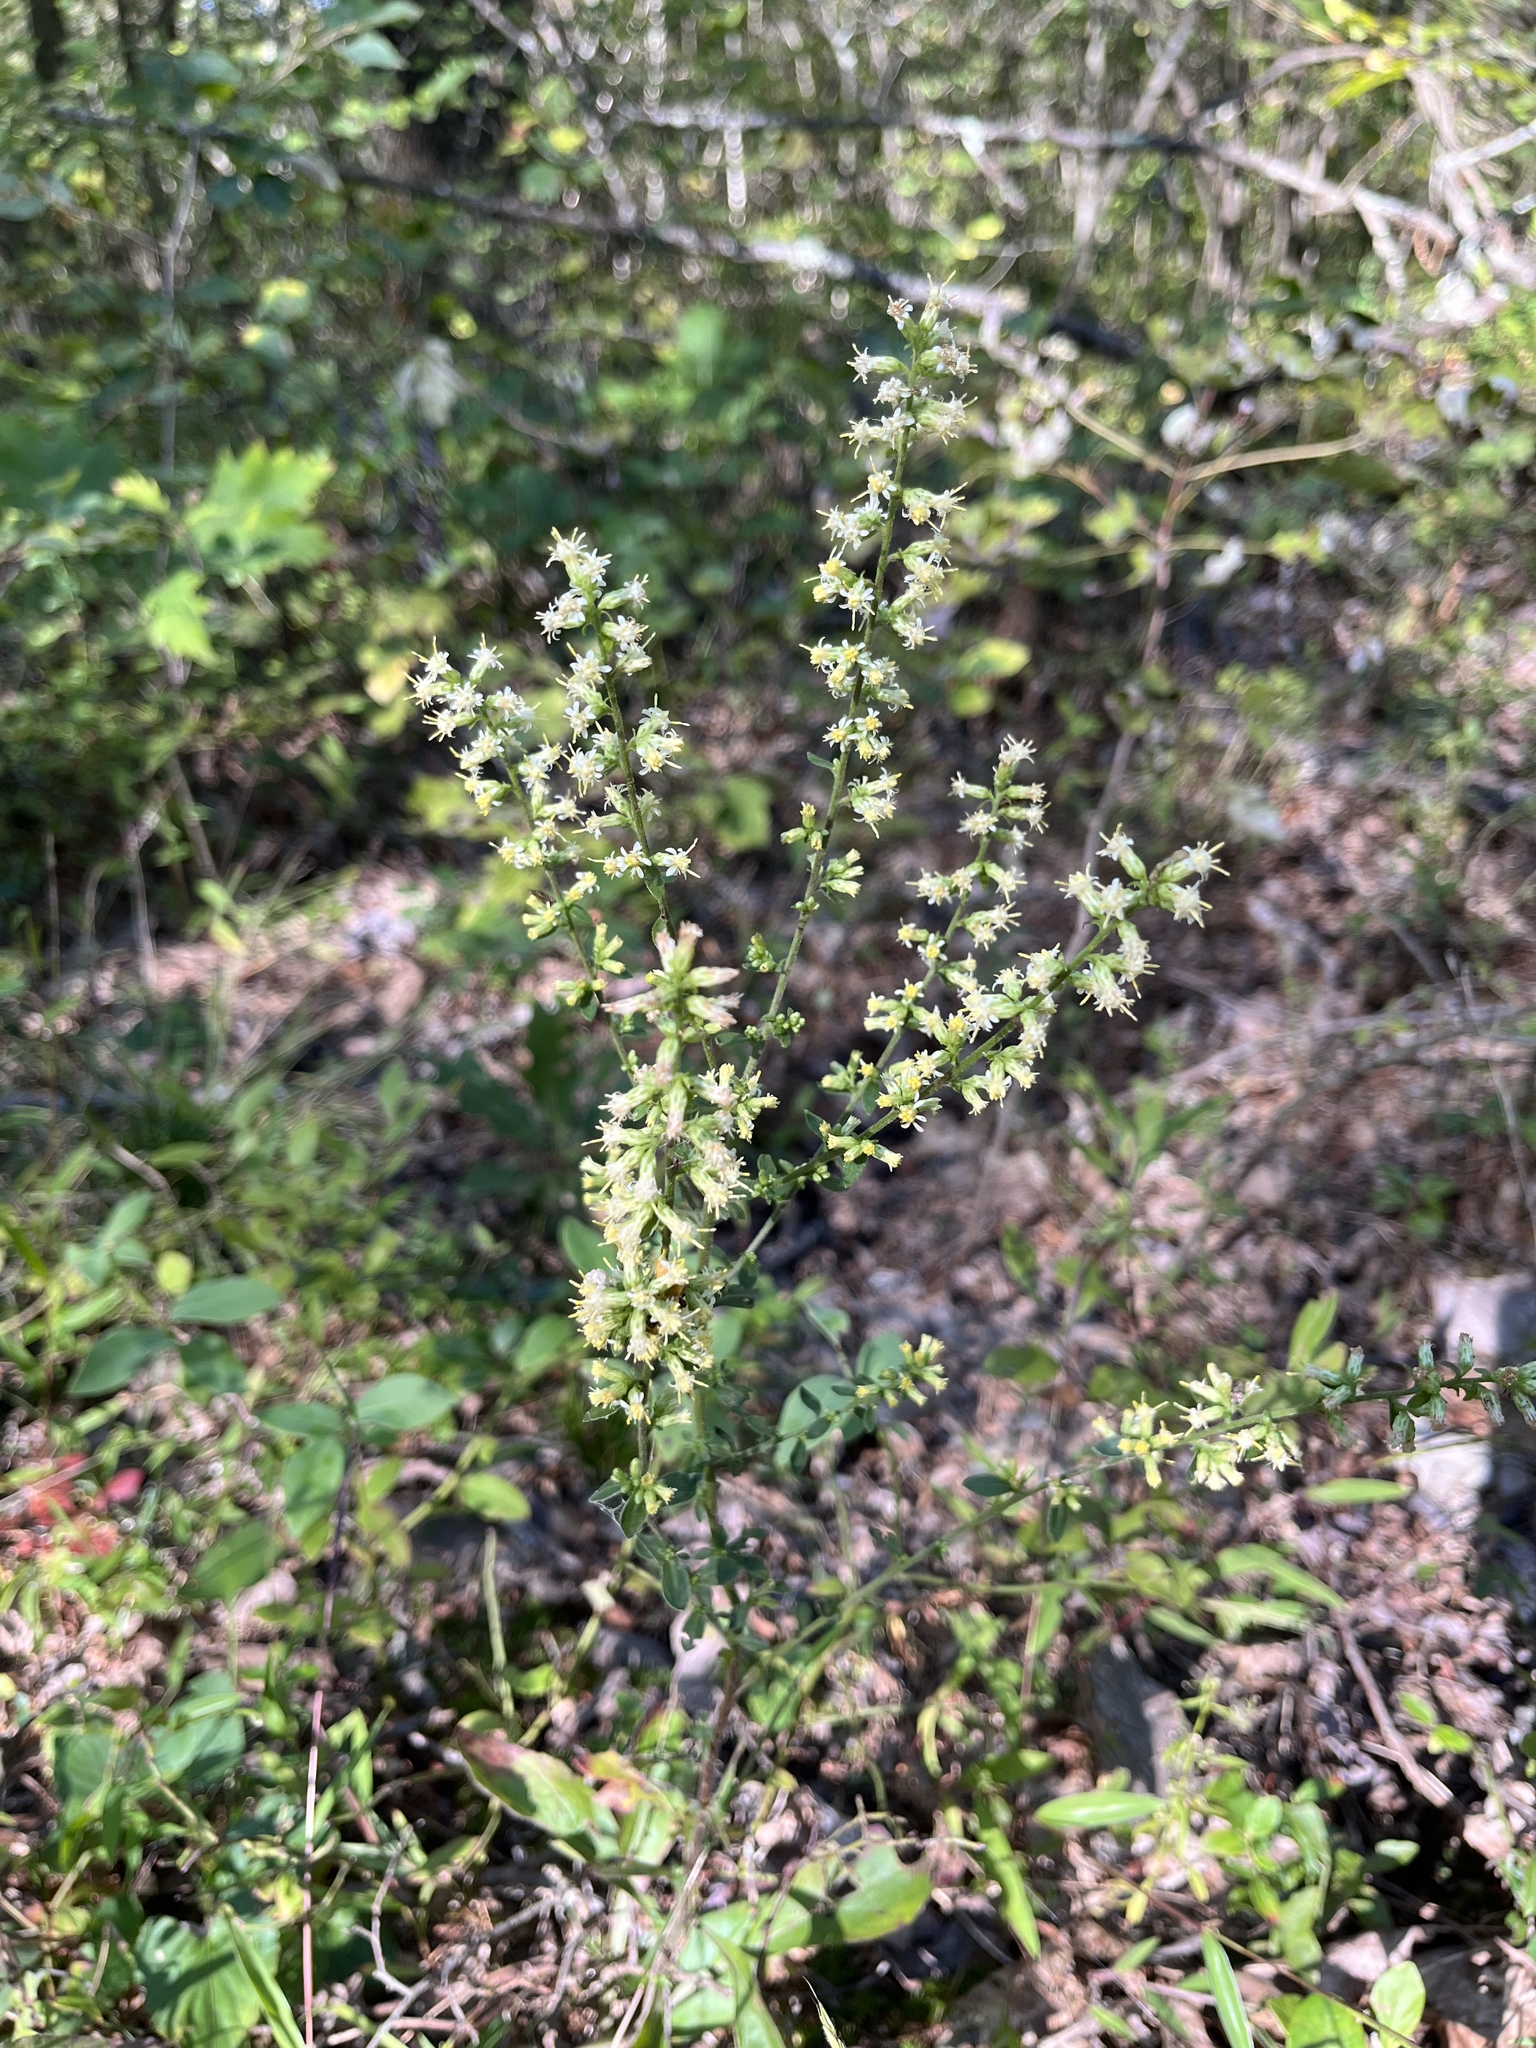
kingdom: Plantae
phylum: Tracheophyta
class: Magnoliopsida
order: Asterales
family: Asteraceae
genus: Solidago
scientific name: Solidago bicolor
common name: Silverrod
